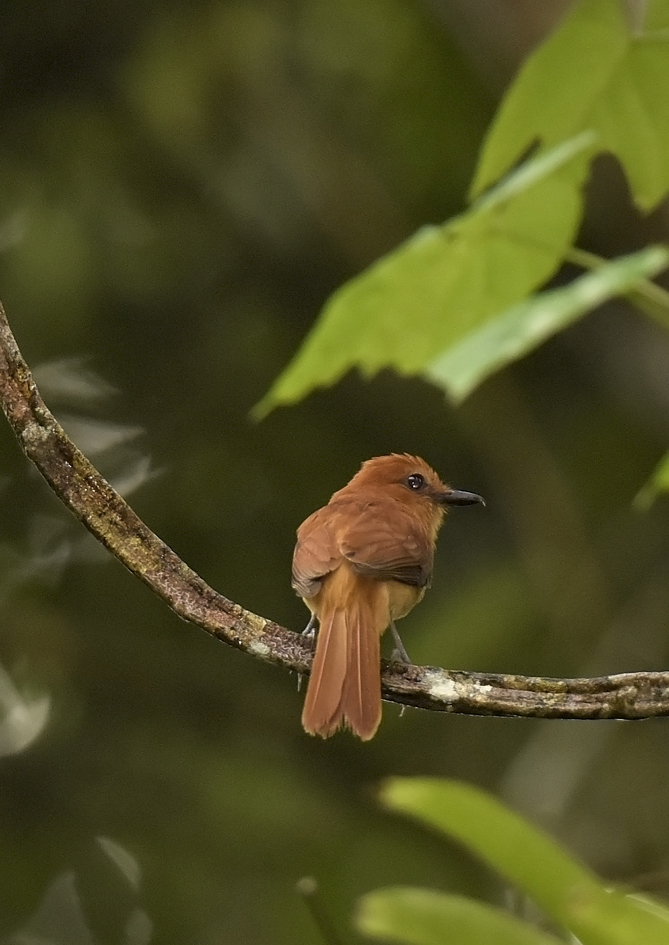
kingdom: Animalia
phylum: Chordata
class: Aves
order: Passeriformes
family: Tyrannidae
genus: Attila
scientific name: Attila cinnamomeus
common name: Cinnamon attila
